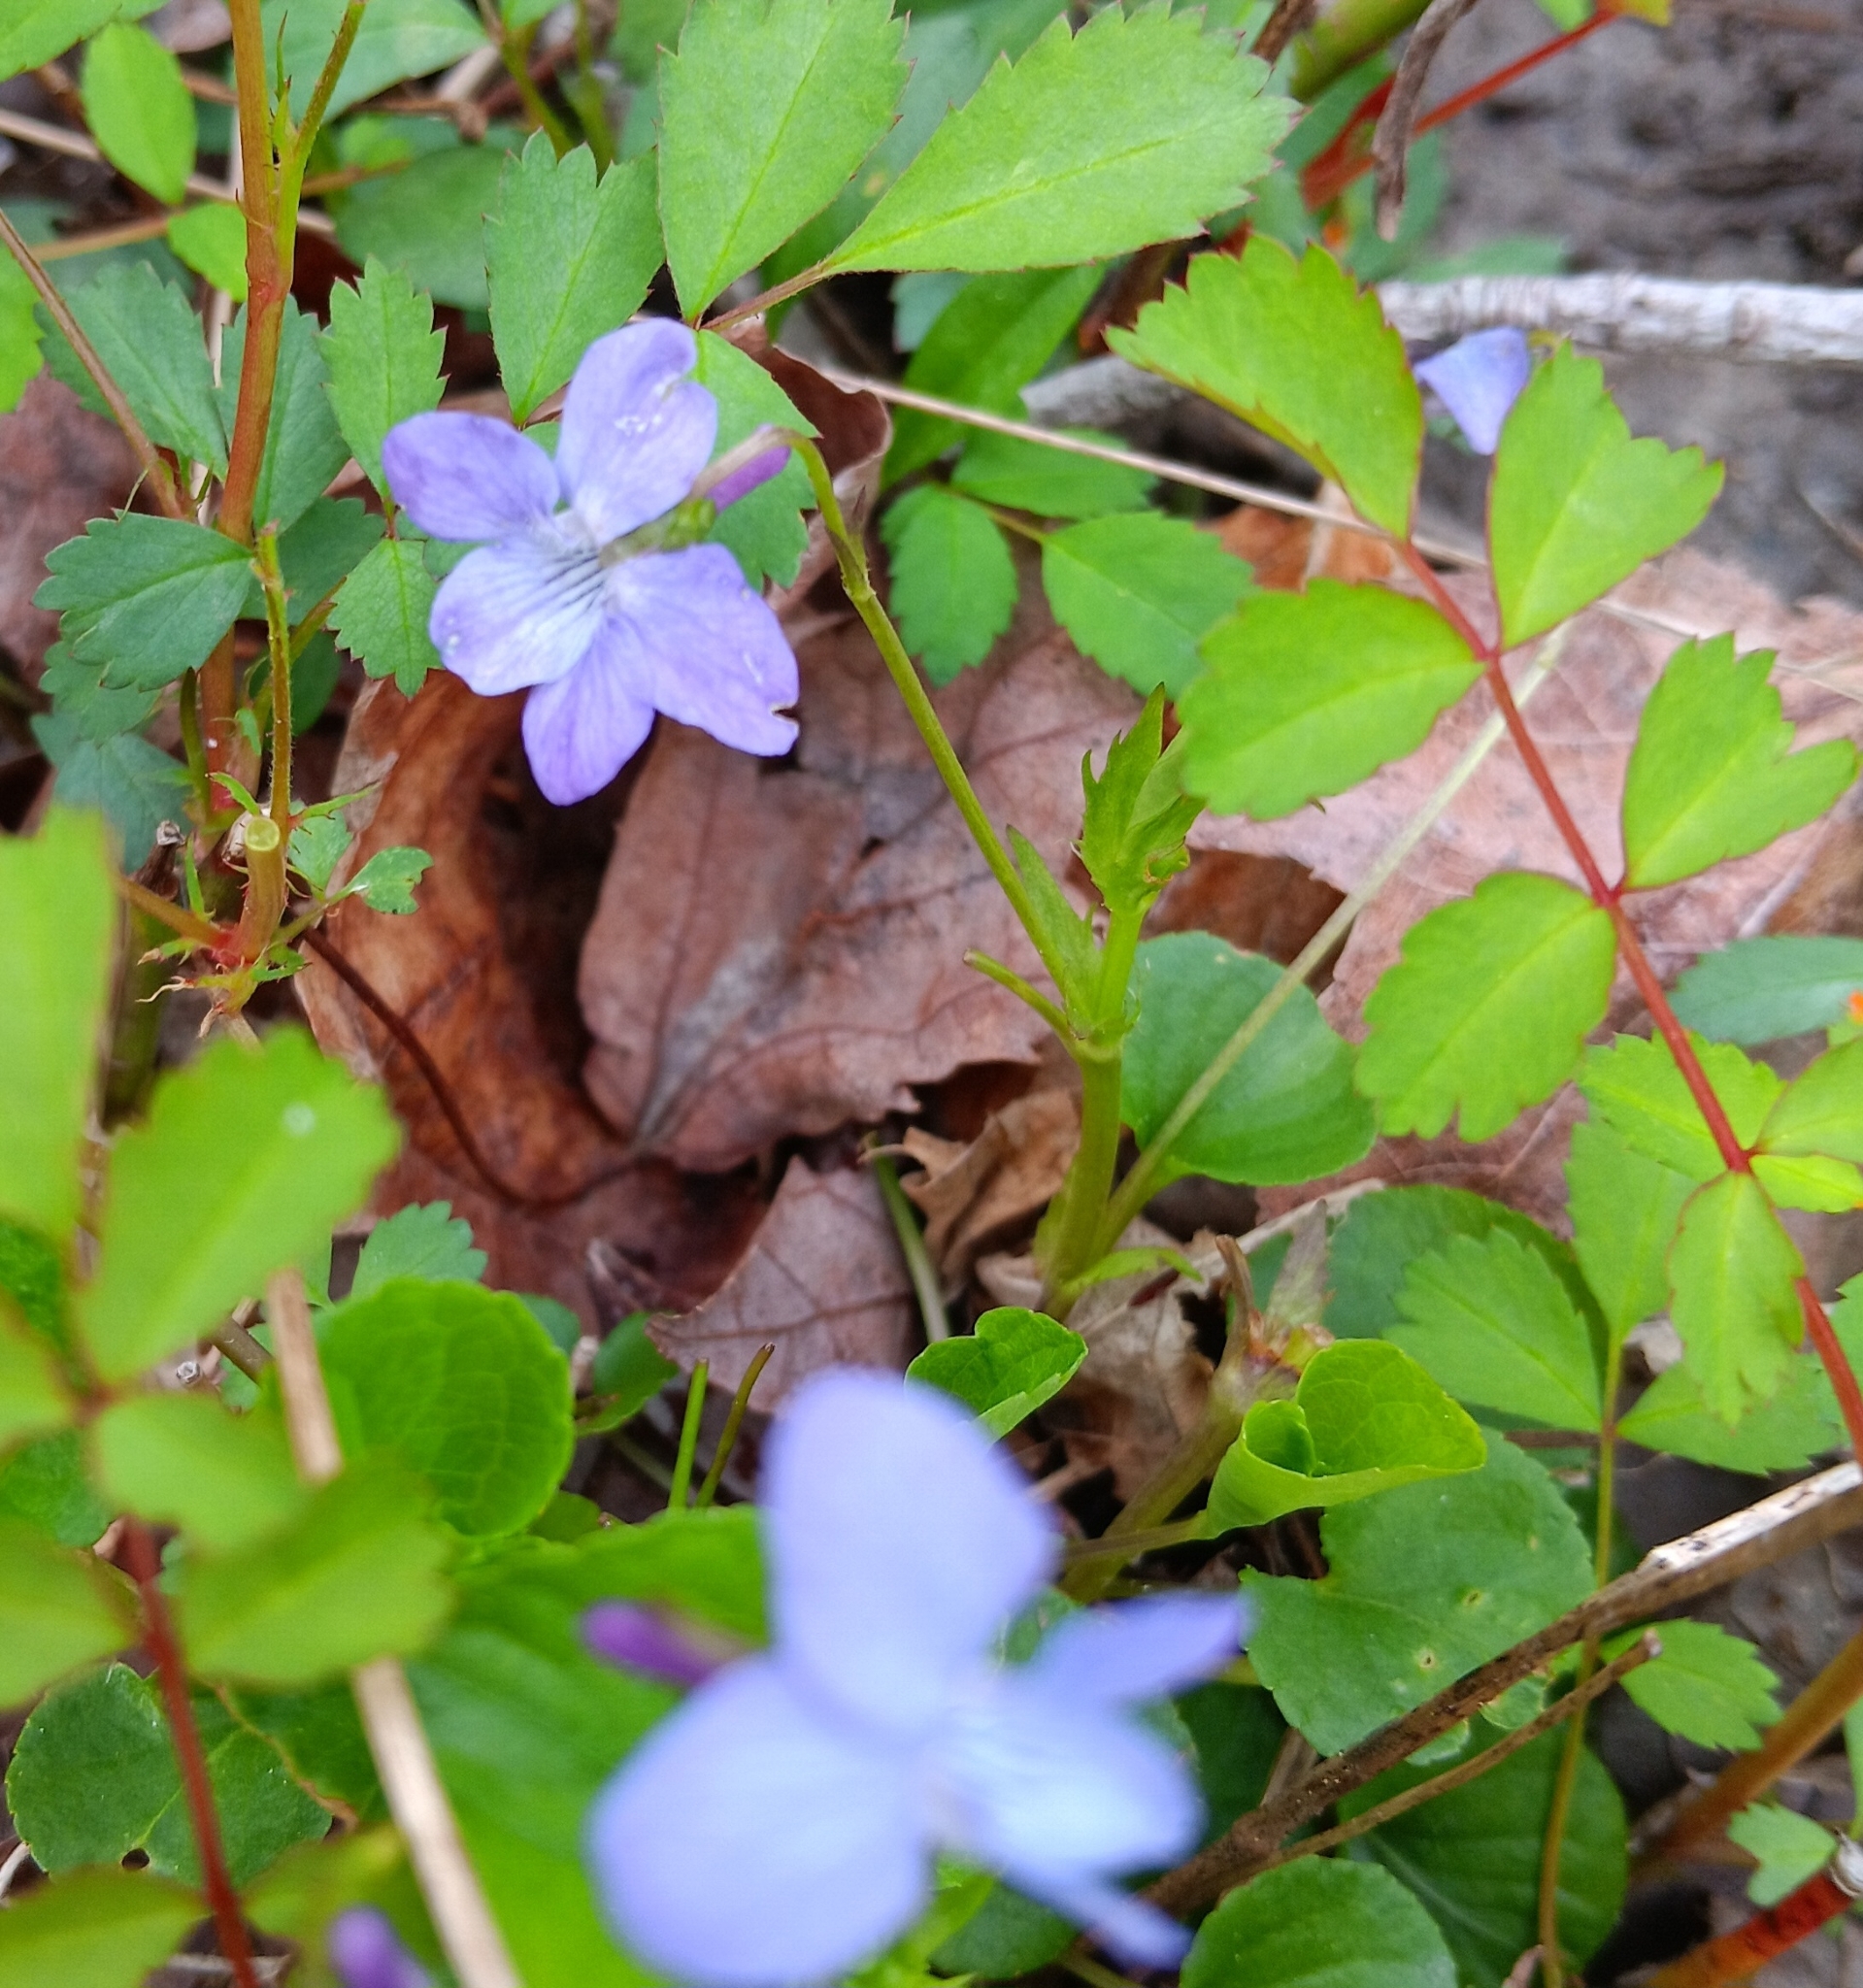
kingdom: Plantae
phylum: Tracheophyta
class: Magnoliopsida
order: Malpighiales
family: Violaceae
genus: Viola
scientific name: Viola labradorica
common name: Labrador violet
